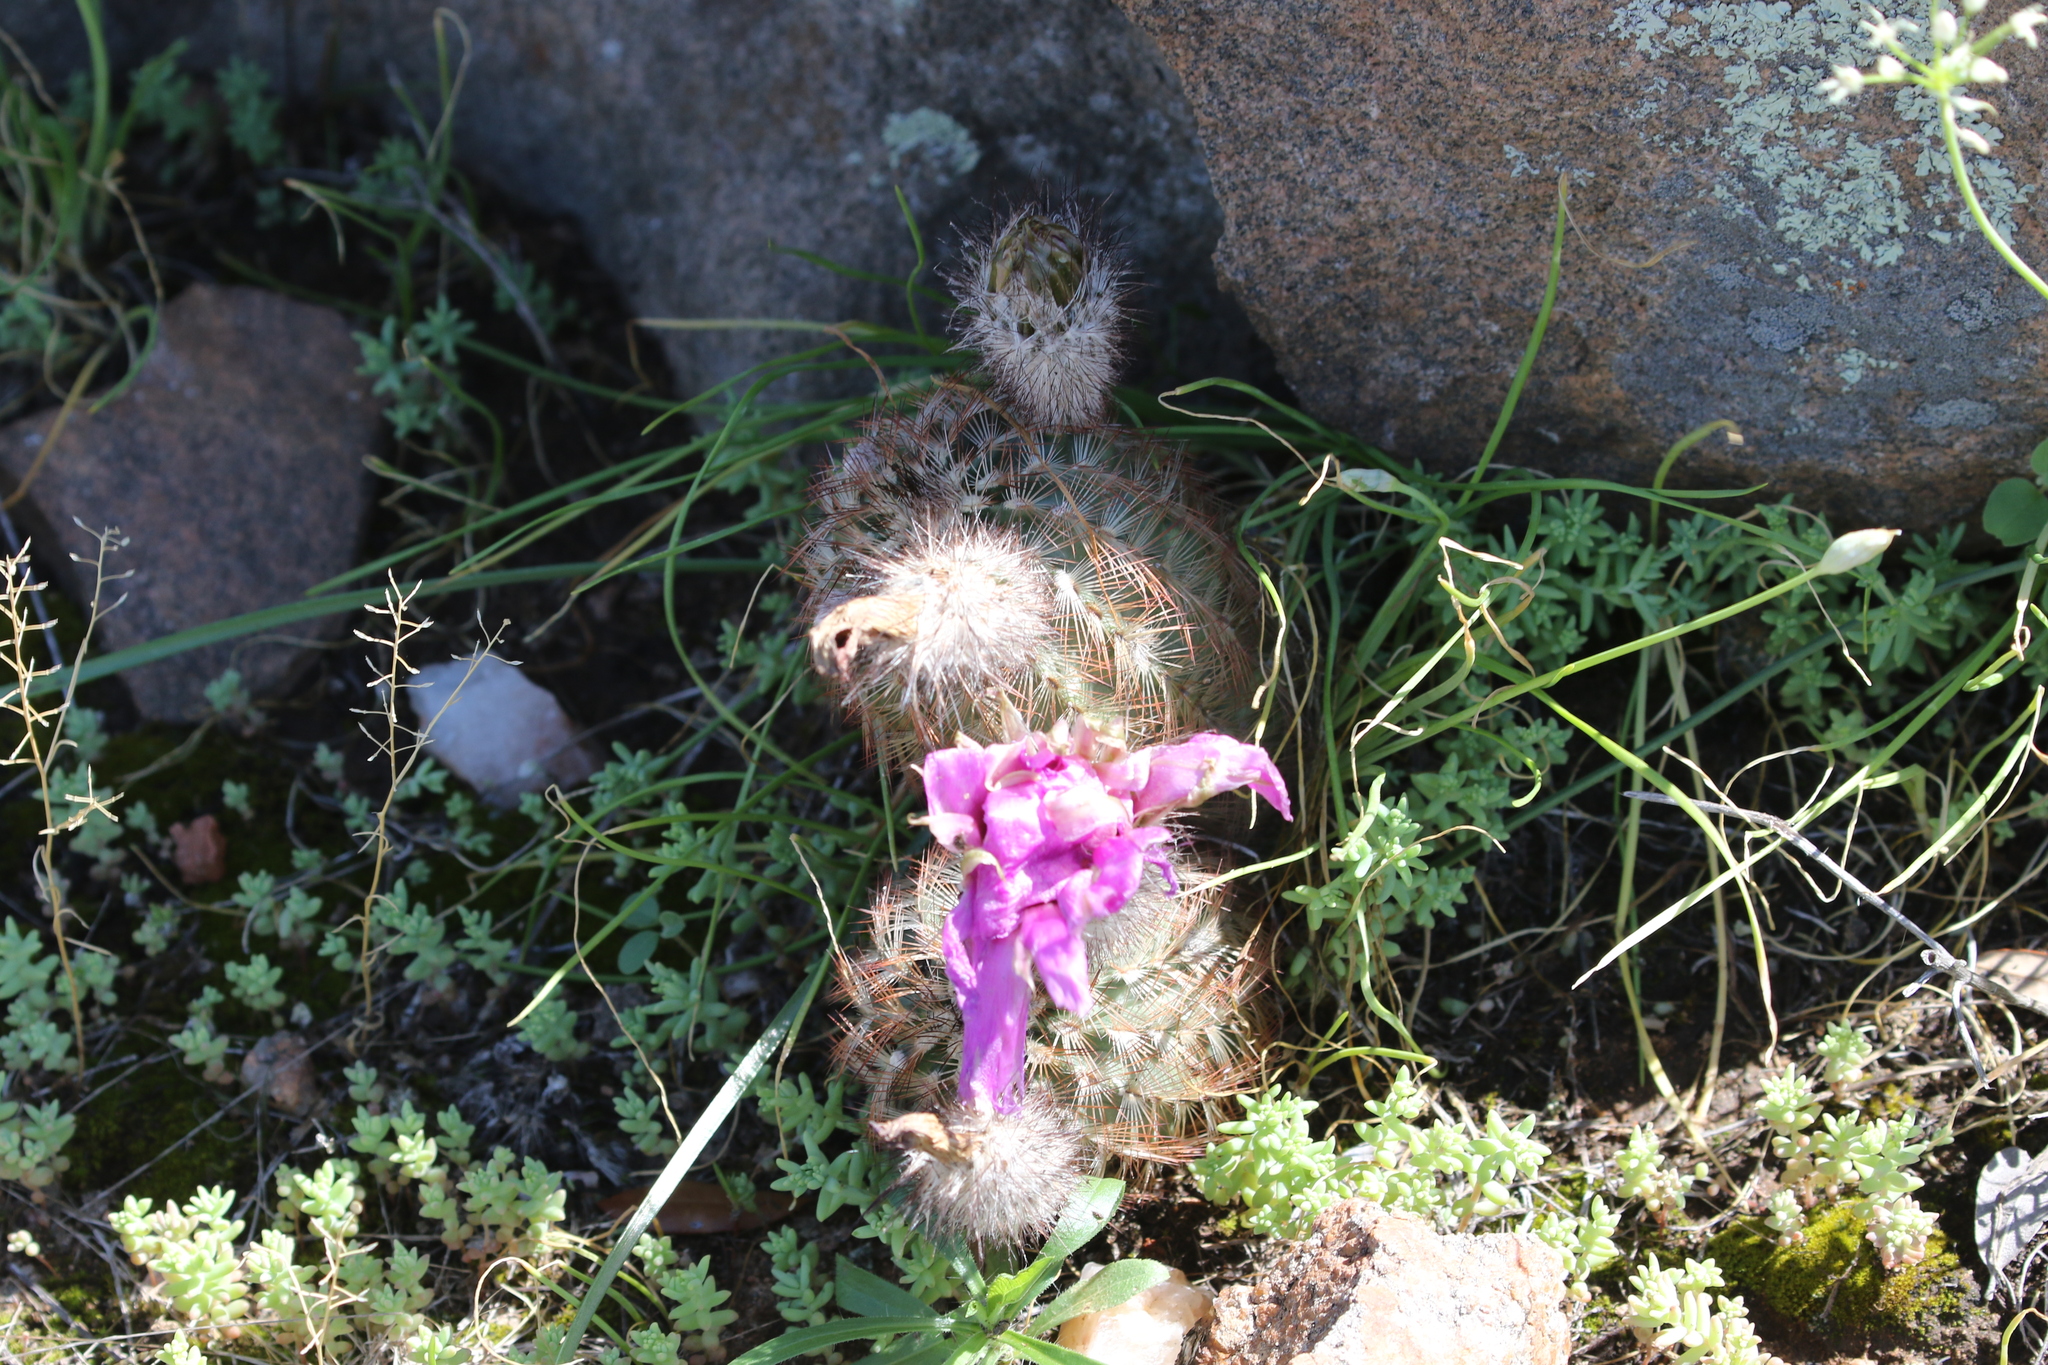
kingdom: Plantae
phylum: Tracheophyta
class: Magnoliopsida
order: Caryophyllales
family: Cactaceae
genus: Echinocereus
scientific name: Echinocereus reichenbachii
